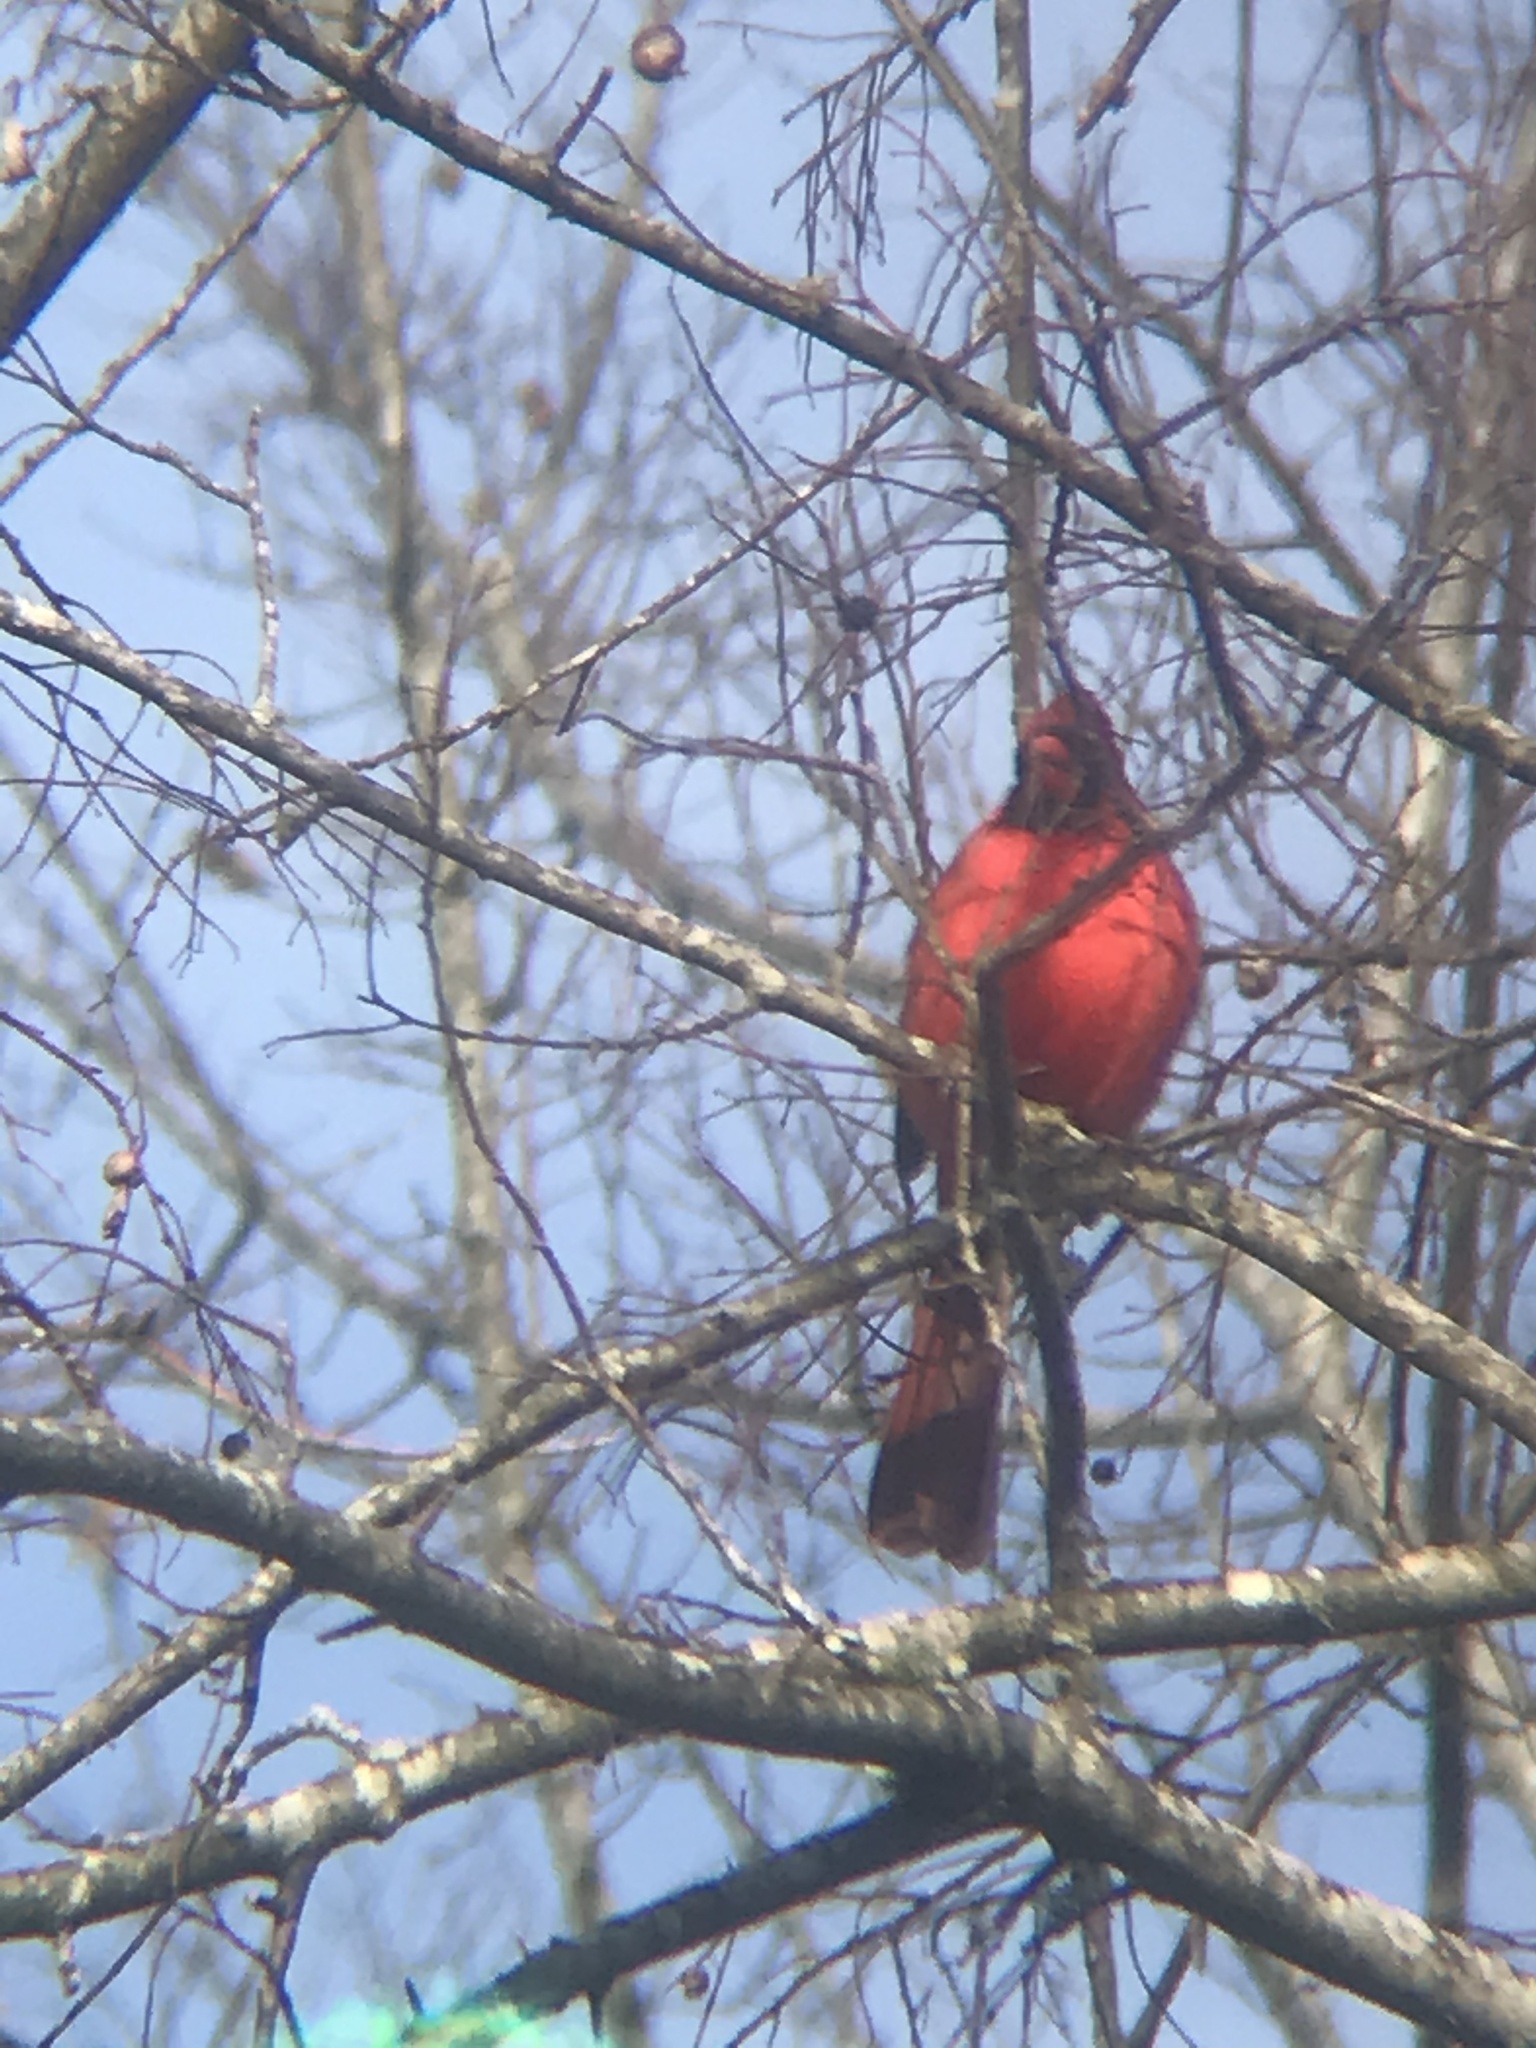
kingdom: Animalia
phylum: Chordata
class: Aves
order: Passeriformes
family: Cardinalidae
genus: Cardinalis
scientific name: Cardinalis cardinalis
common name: Northern cardinal
